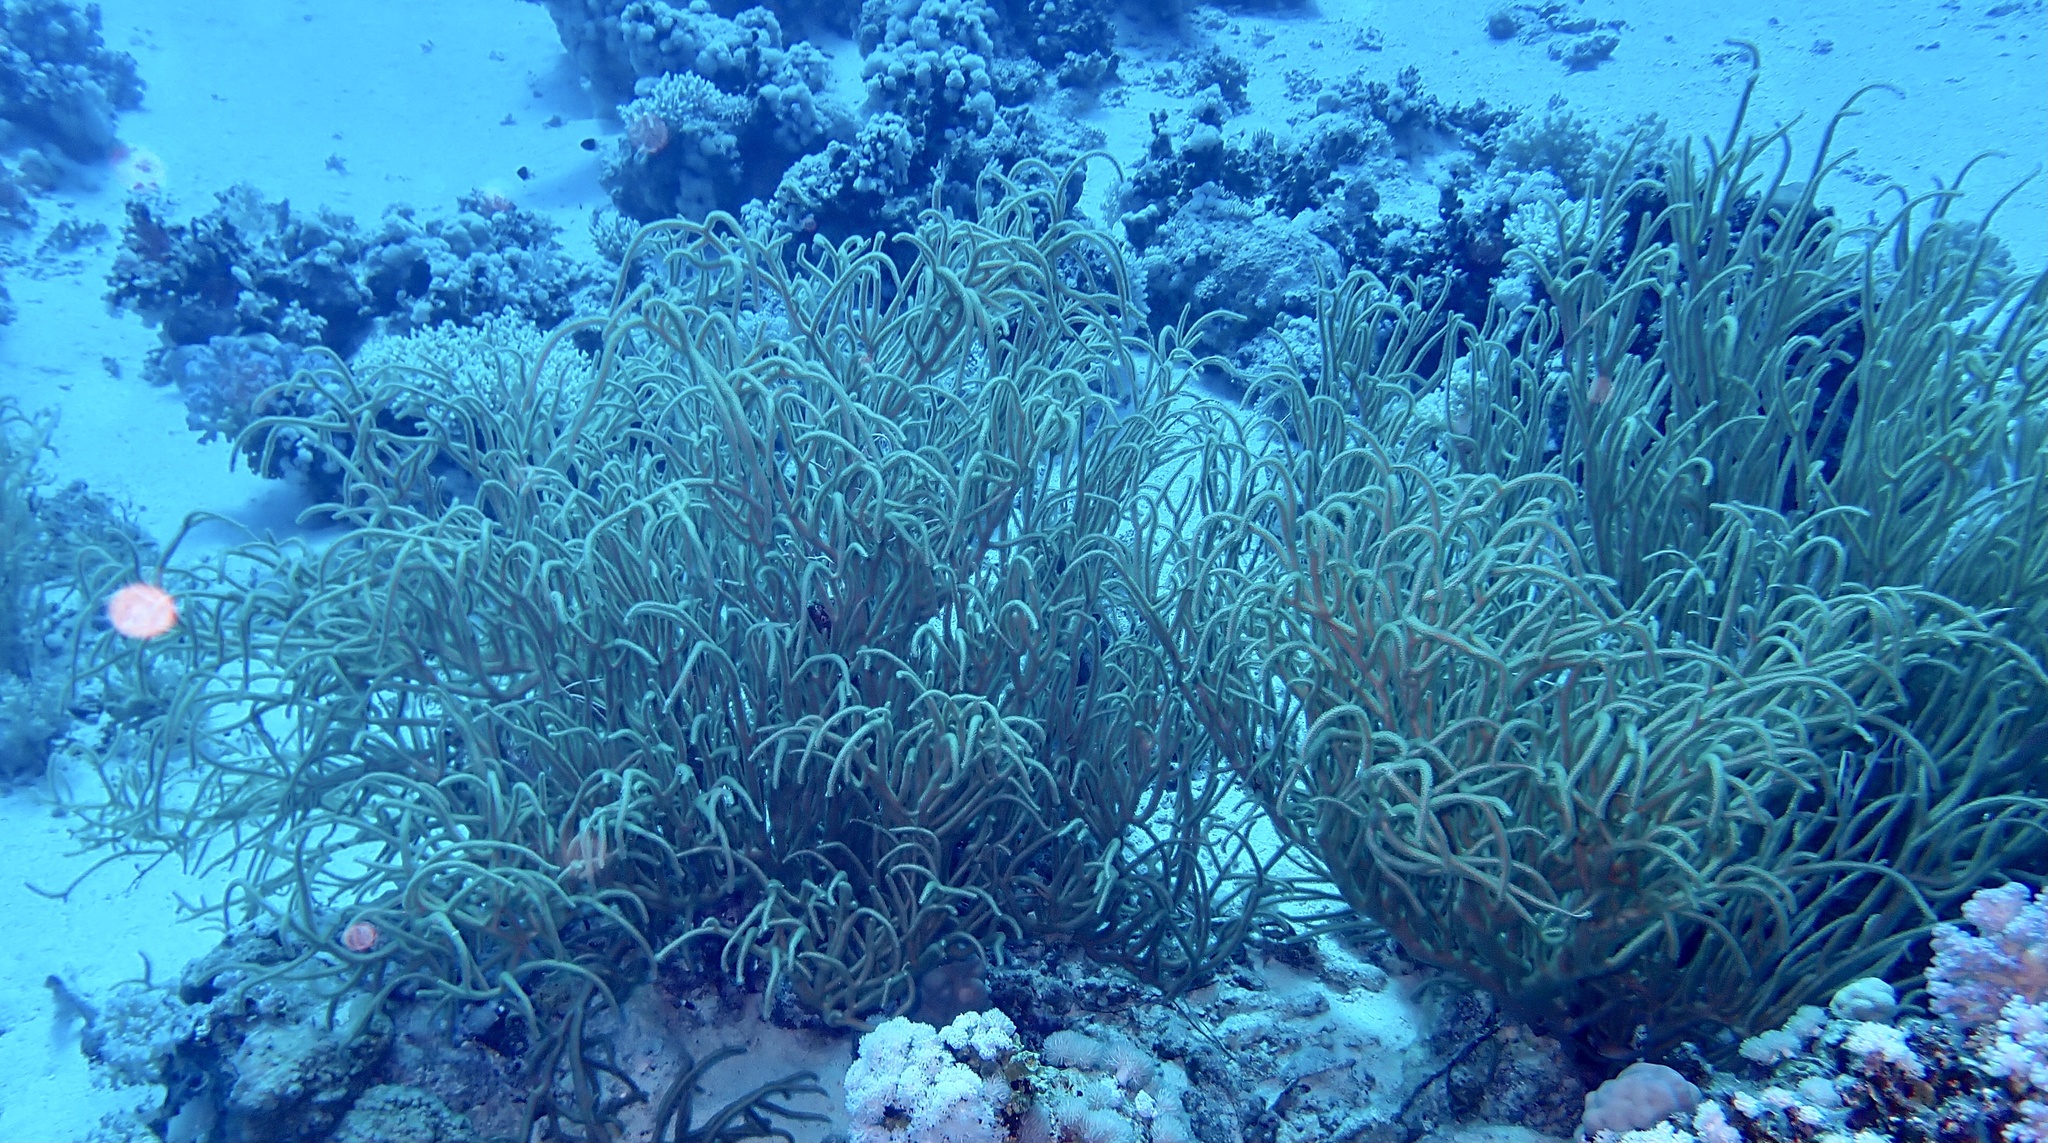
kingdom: Animalia
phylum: Cnidaria
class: Anthozoa
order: Malacalcyonacea
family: Isididae
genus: Rumphella
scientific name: Rumphella torta
